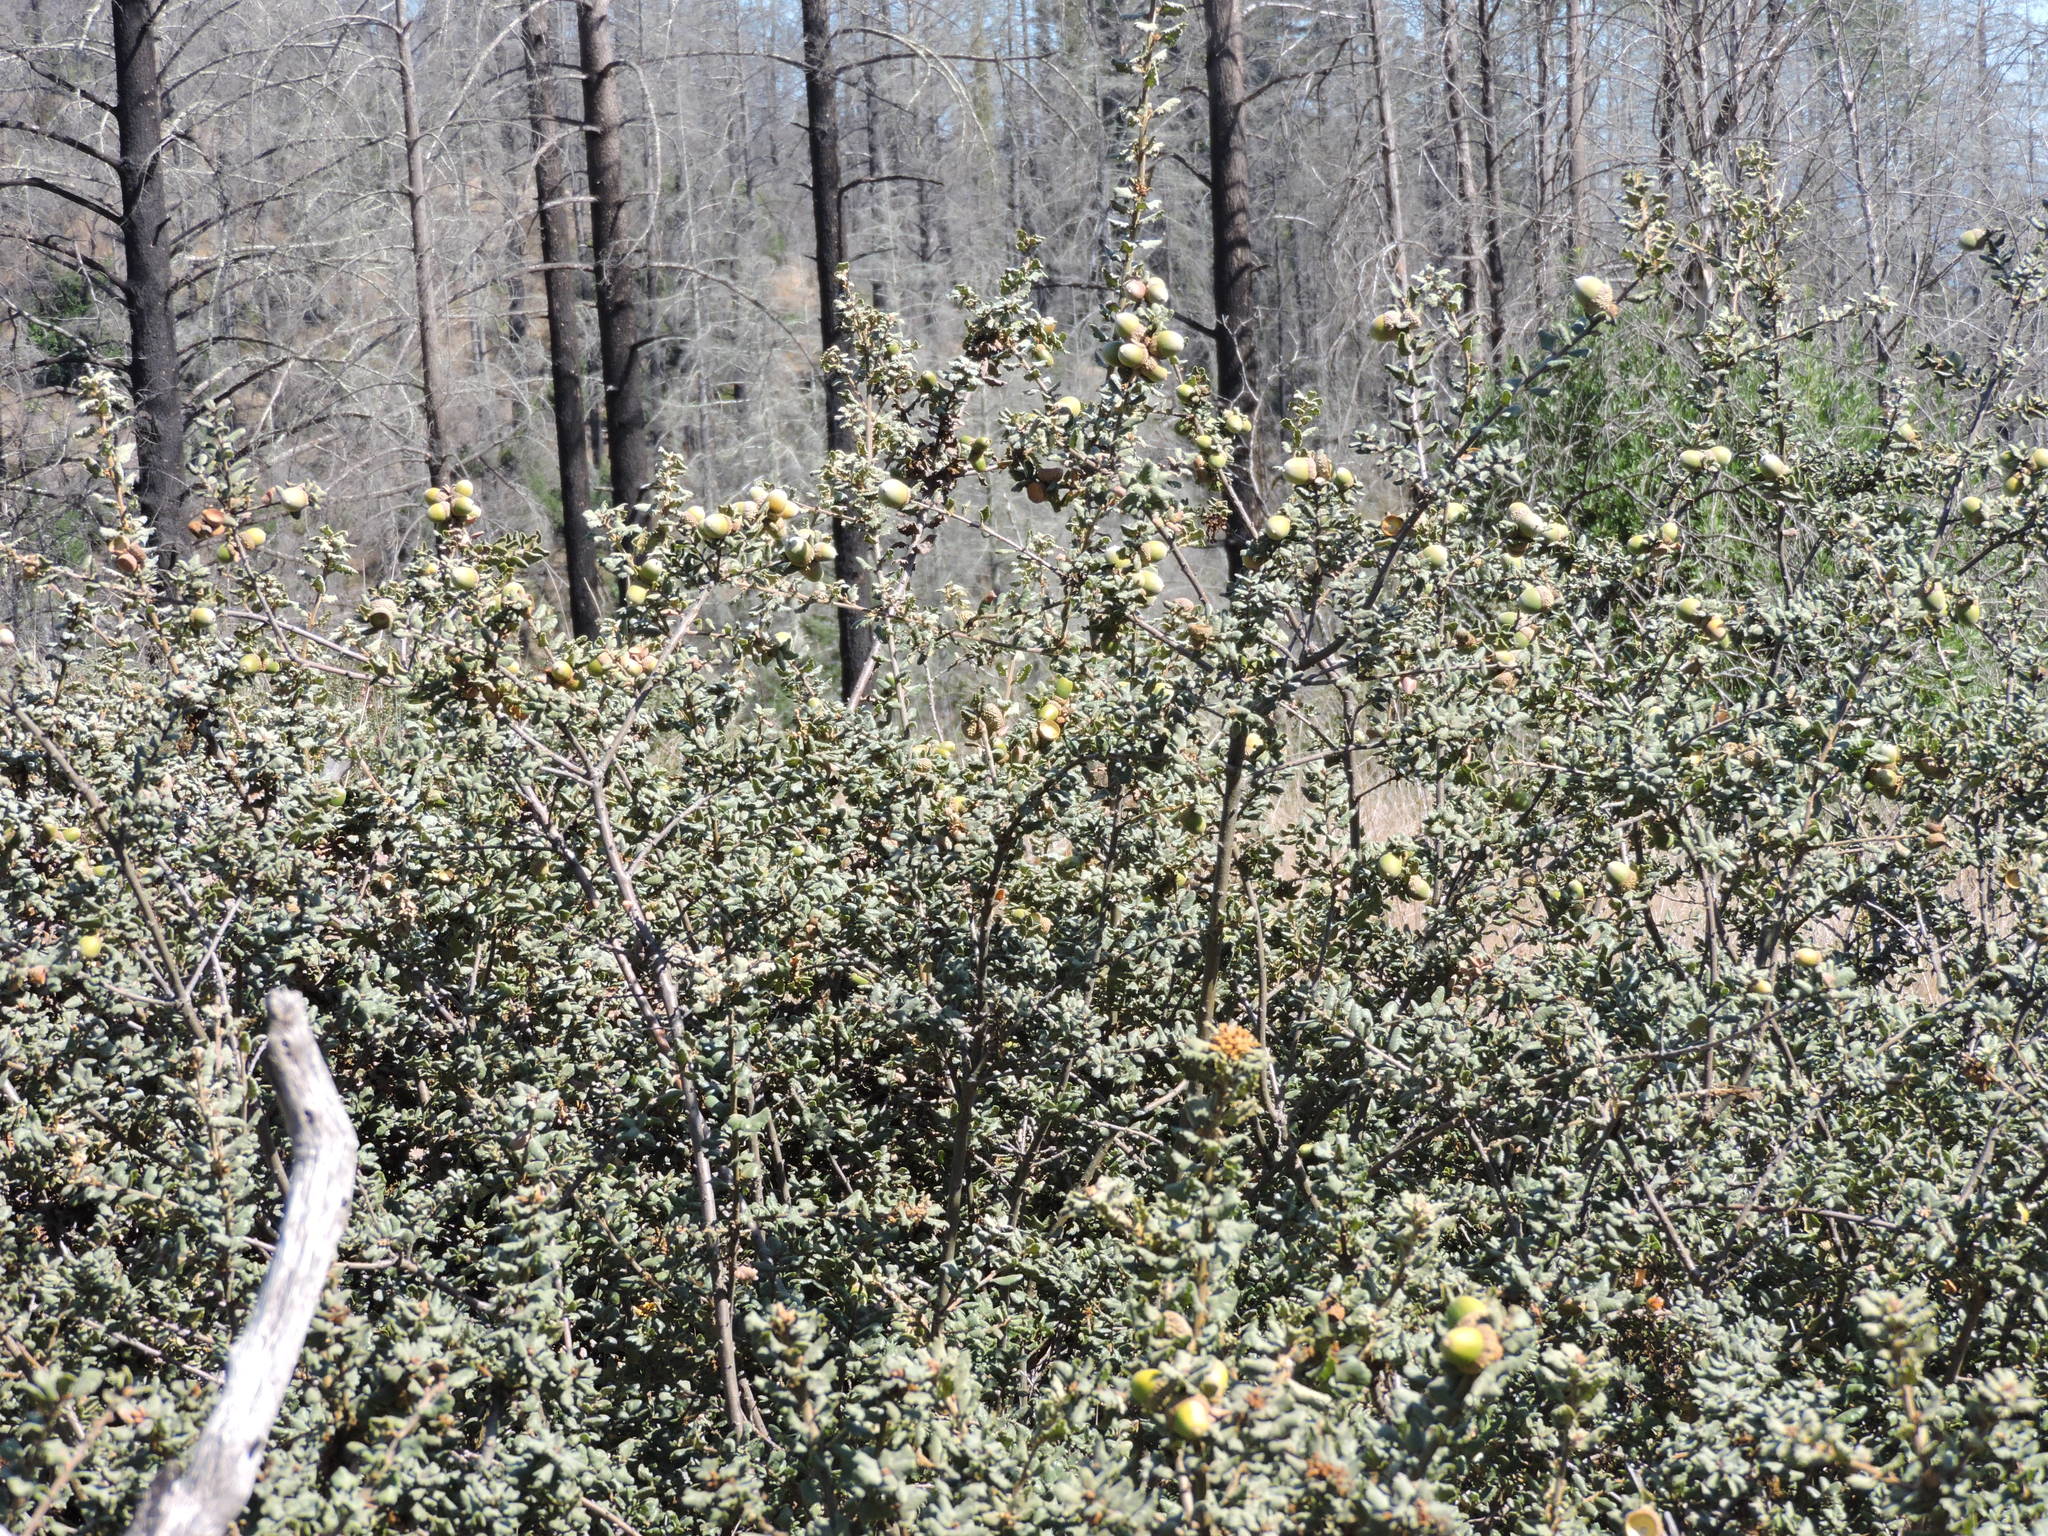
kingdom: Plantae
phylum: Tracheophyta
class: Magnoliopsida
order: Fagales
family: Fagaceae
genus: Quercus
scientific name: Quercus durata
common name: Leather oak
